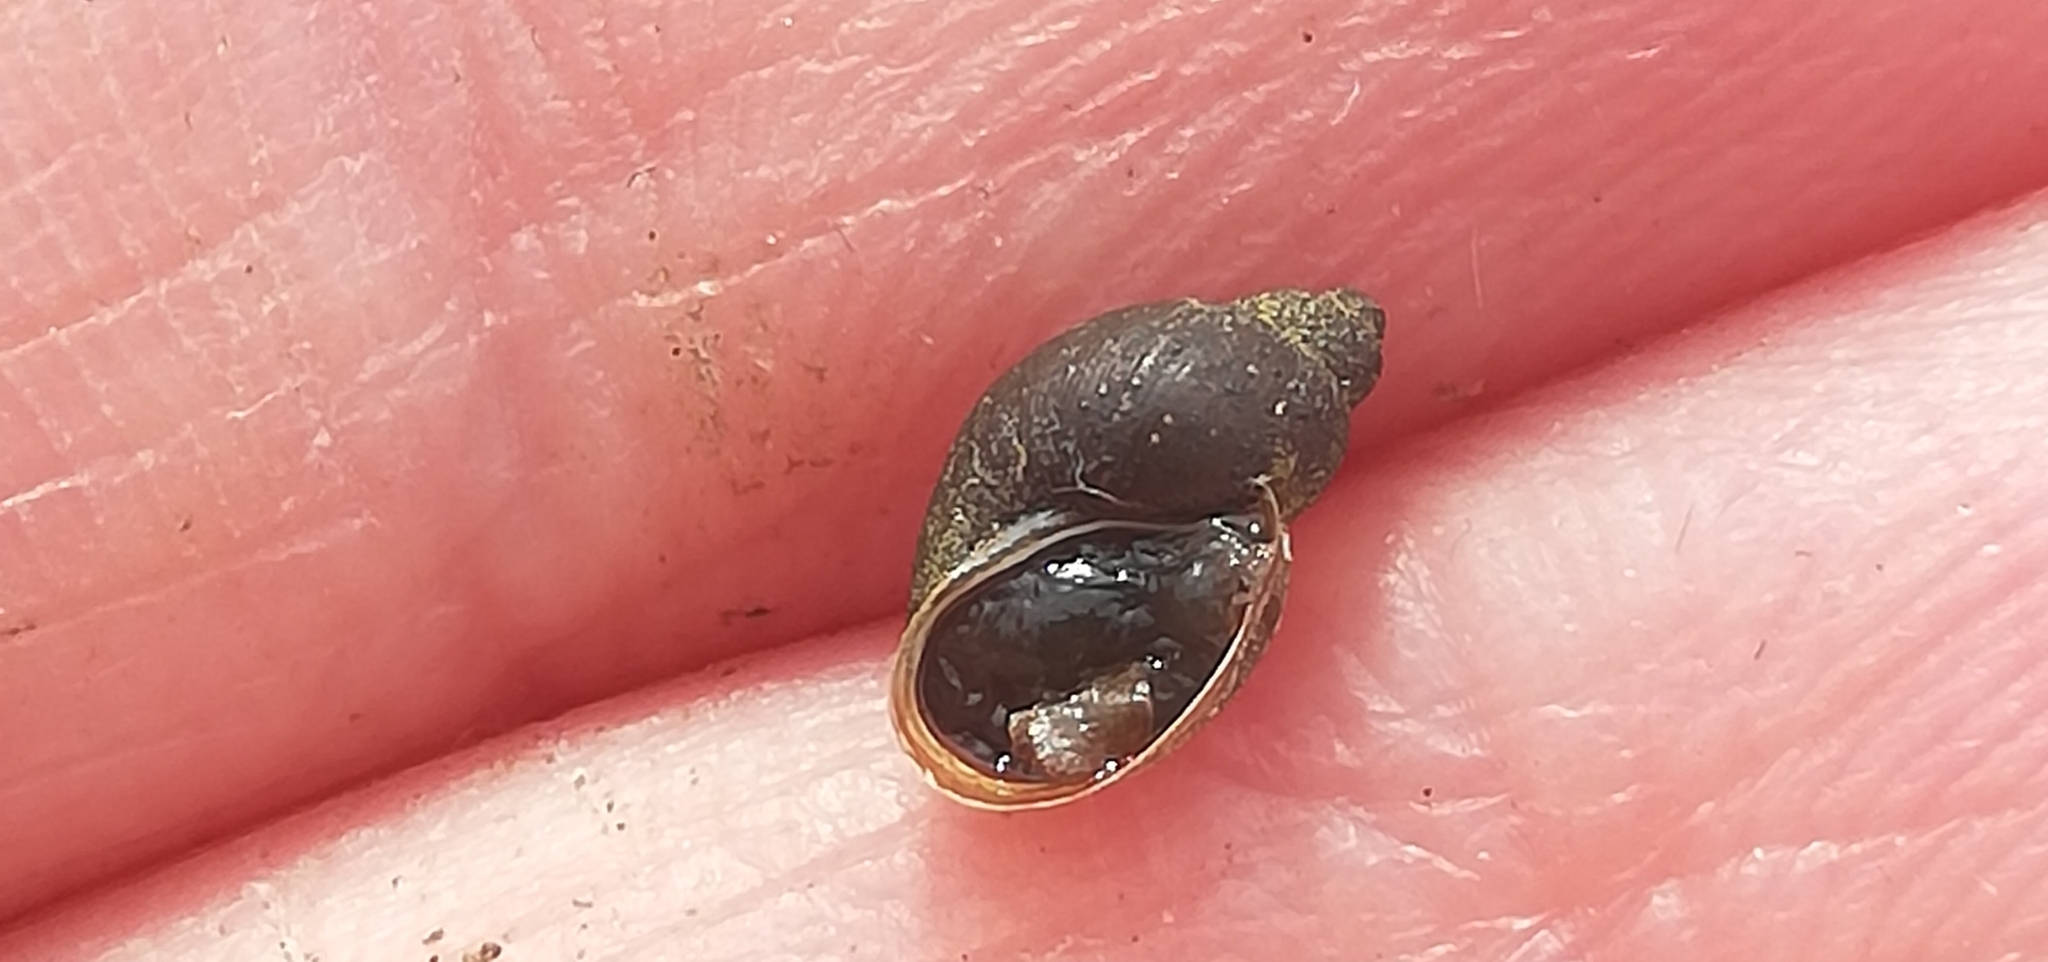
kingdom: Animalia
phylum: Mollusca
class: Gastropoda
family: Lymnaeidae
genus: Galba
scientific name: Galba truncatula
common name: Dwarf pond snail
